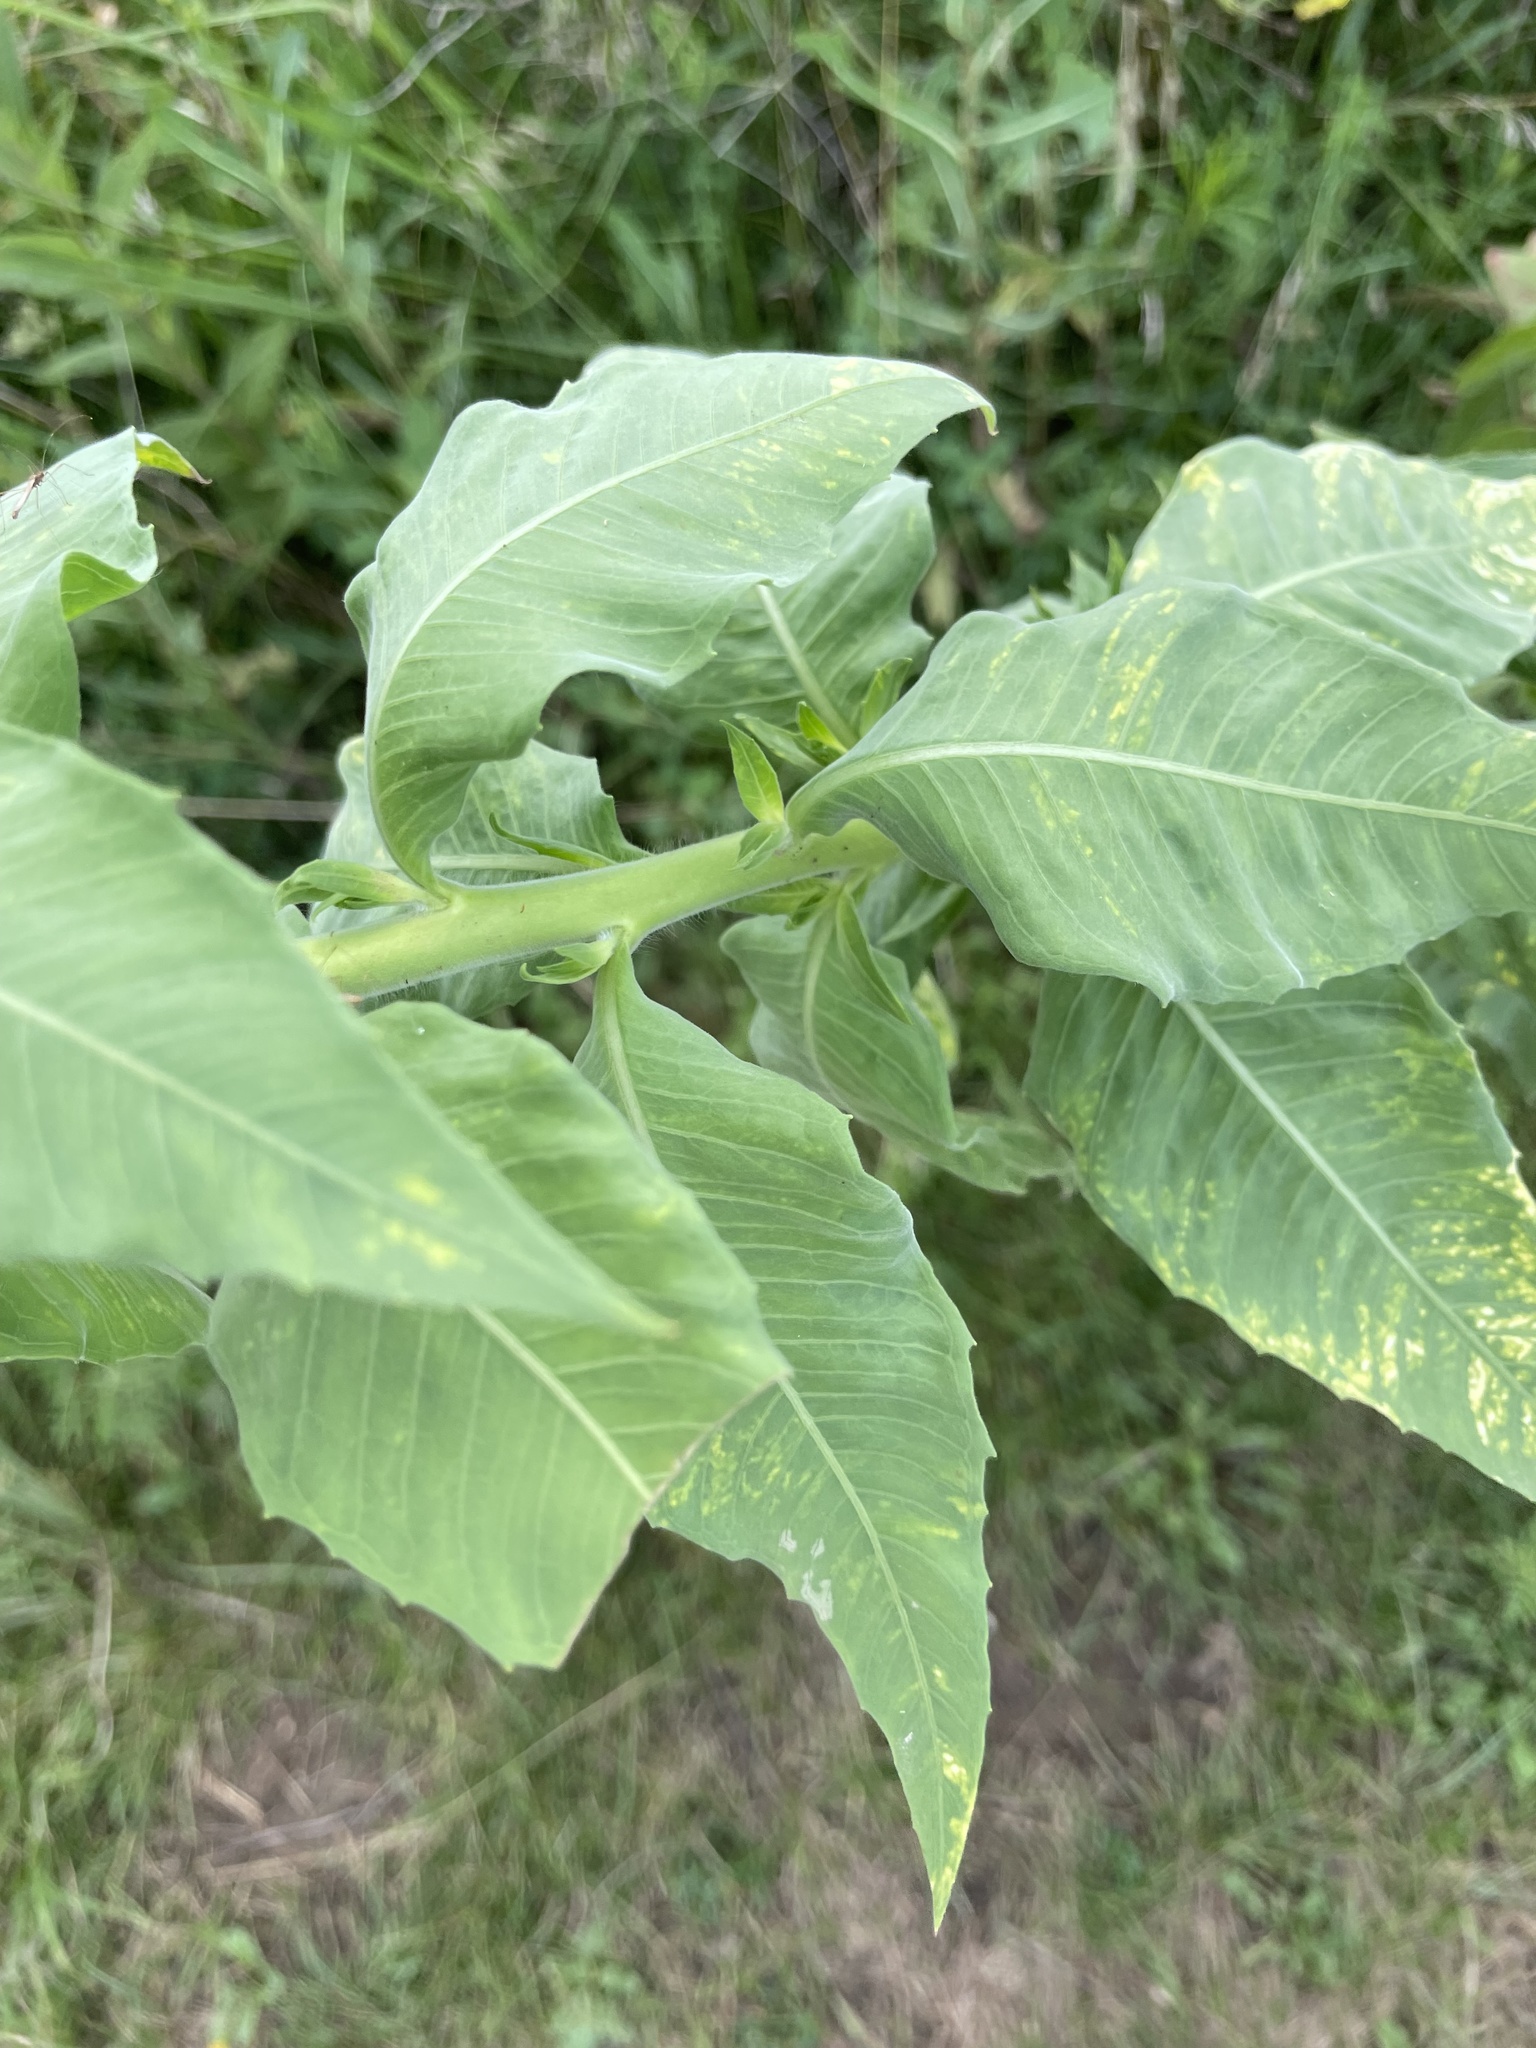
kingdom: Plantae
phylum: Tracheophyta
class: Magnoliopsida
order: Myrtales
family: Onagraceae
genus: Oenothera
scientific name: Oenothera curtiflora
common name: Velvetweed
